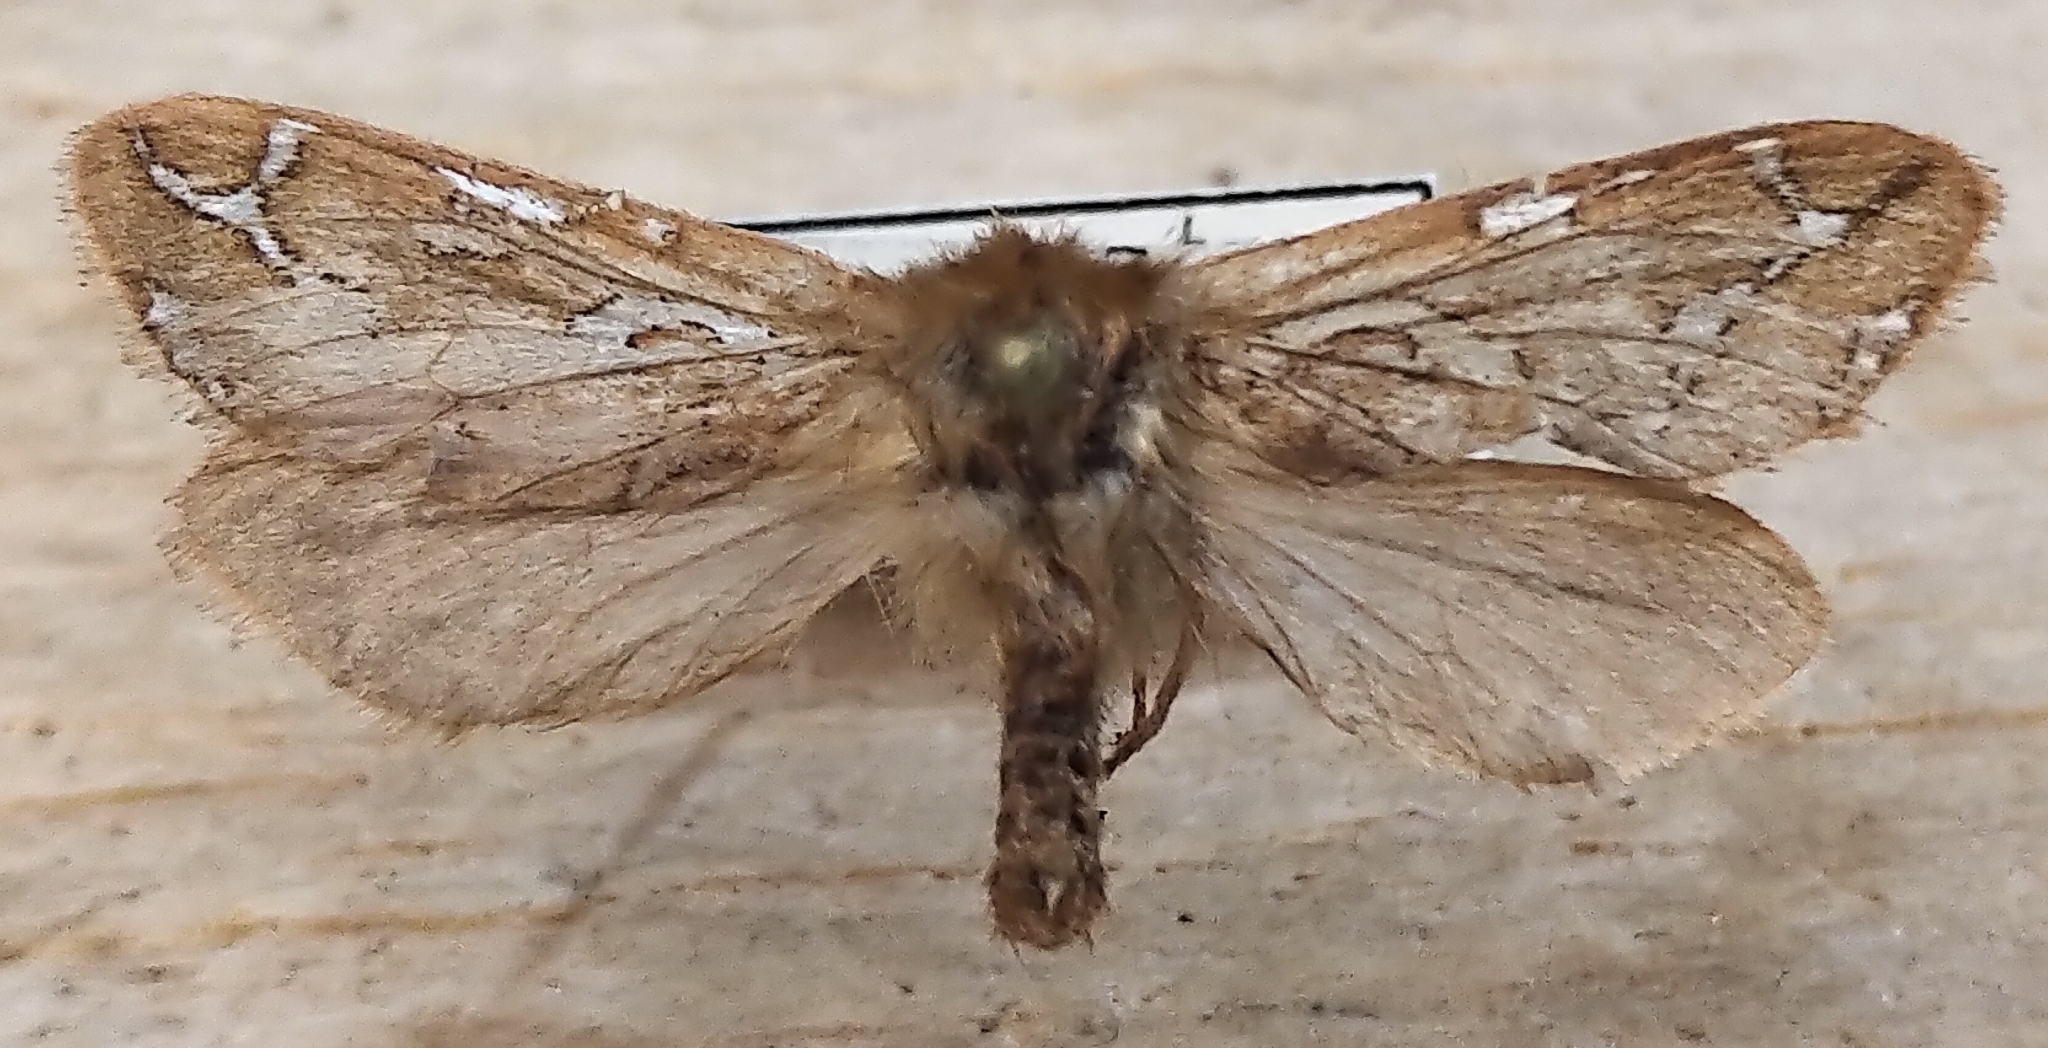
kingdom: Animalia
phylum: Arthropoda
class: Insecta
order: Lepidoptera
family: Hepialidae
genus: Gazoryctra
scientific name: Gazoryctra hyperboreus
